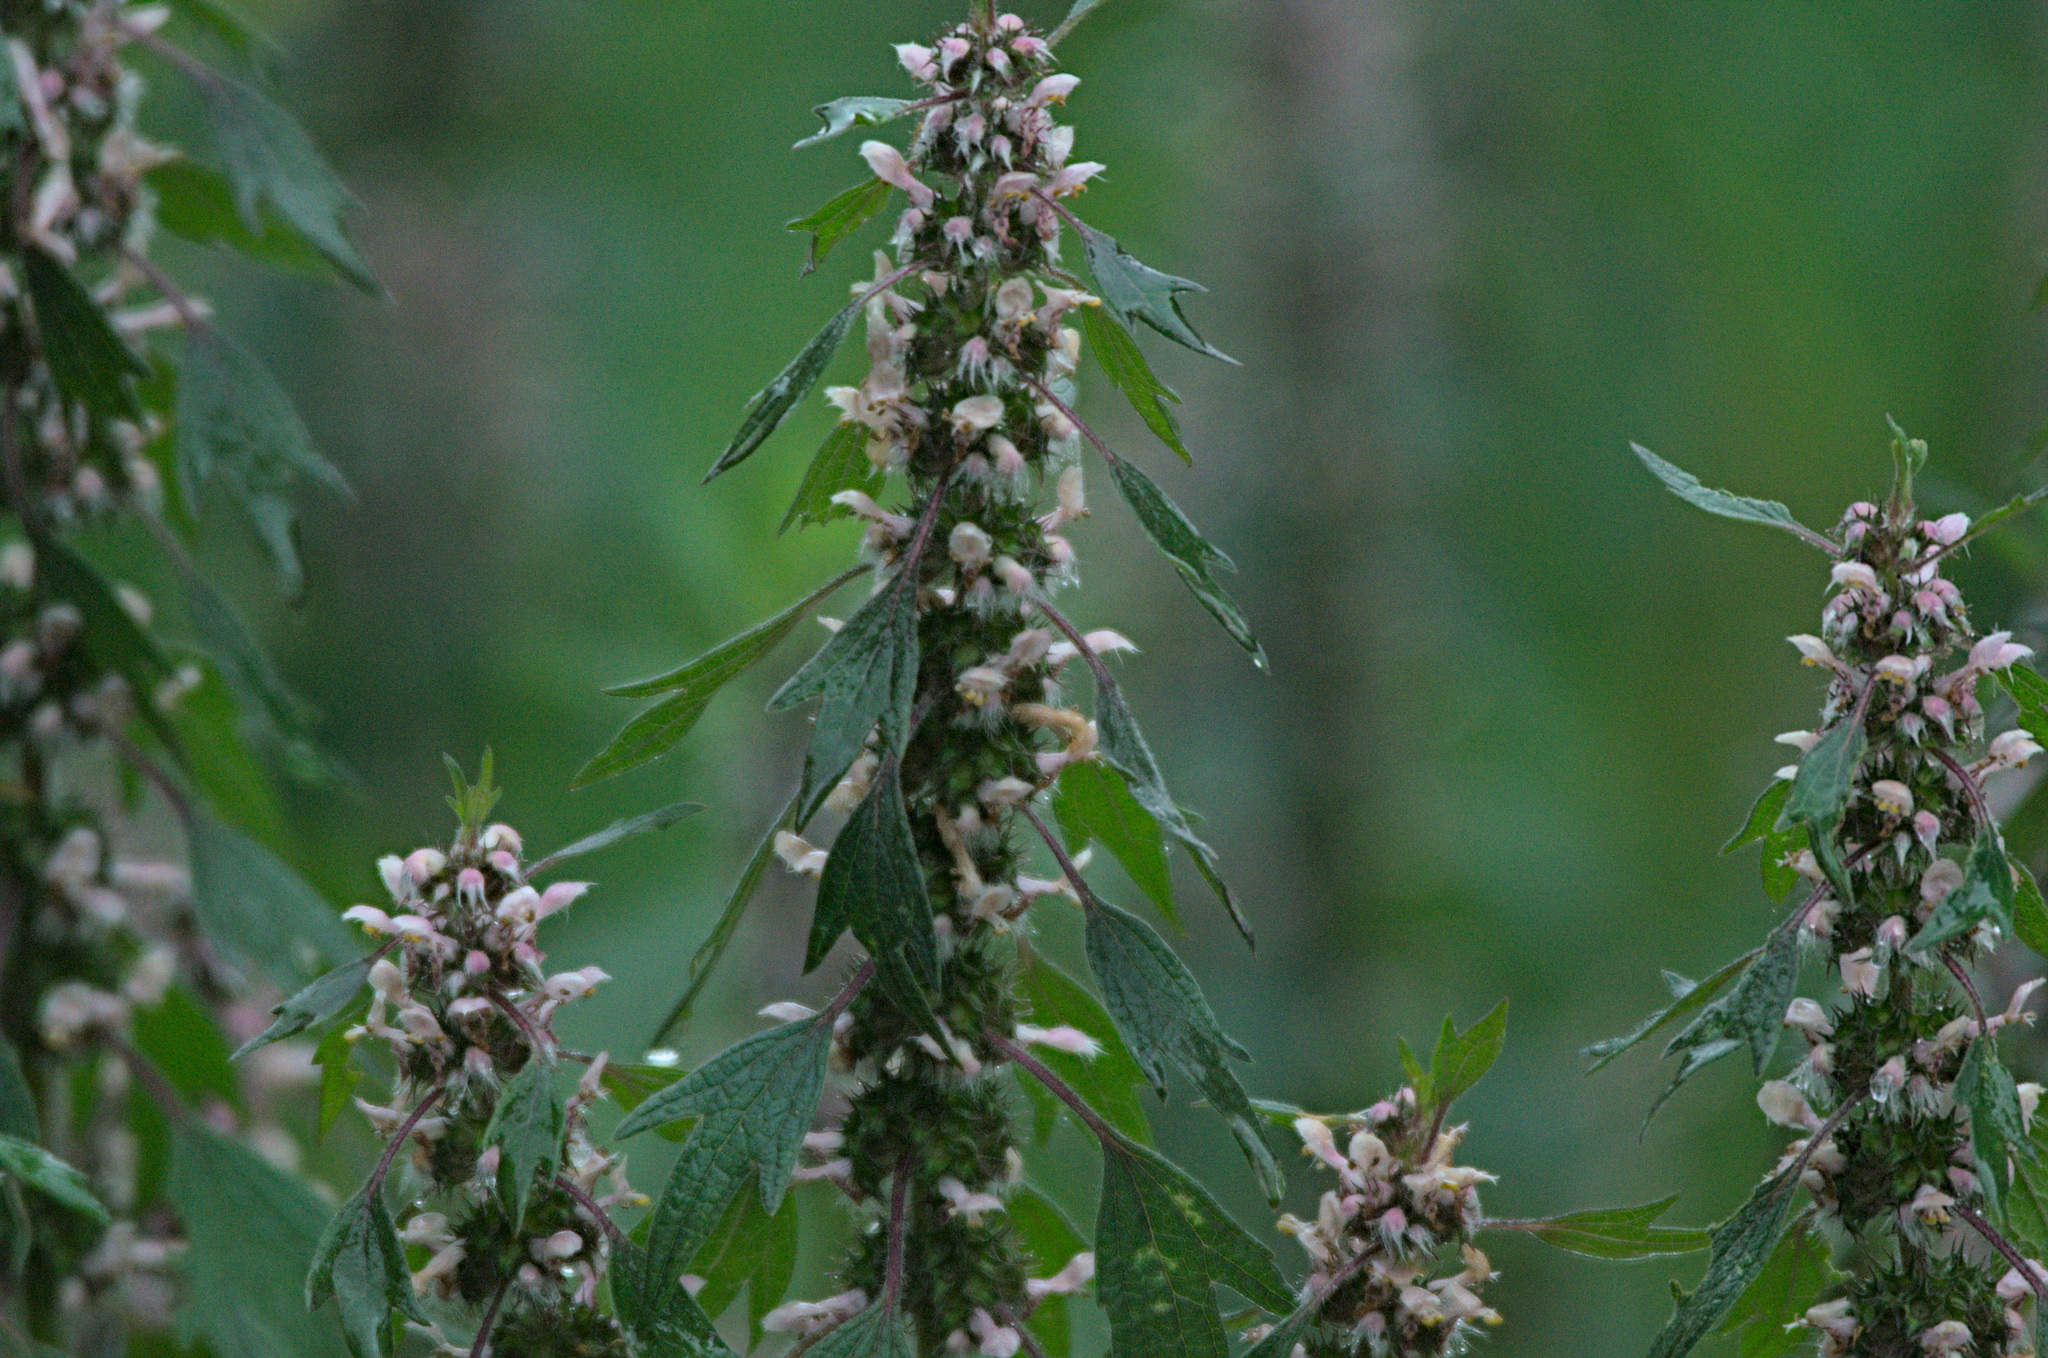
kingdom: Plantae
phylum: Tracheophyta
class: Magnoliopsida
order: Lamiales
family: Lamiaceae
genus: Leonurus
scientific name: Leonurus quinquelobatus
